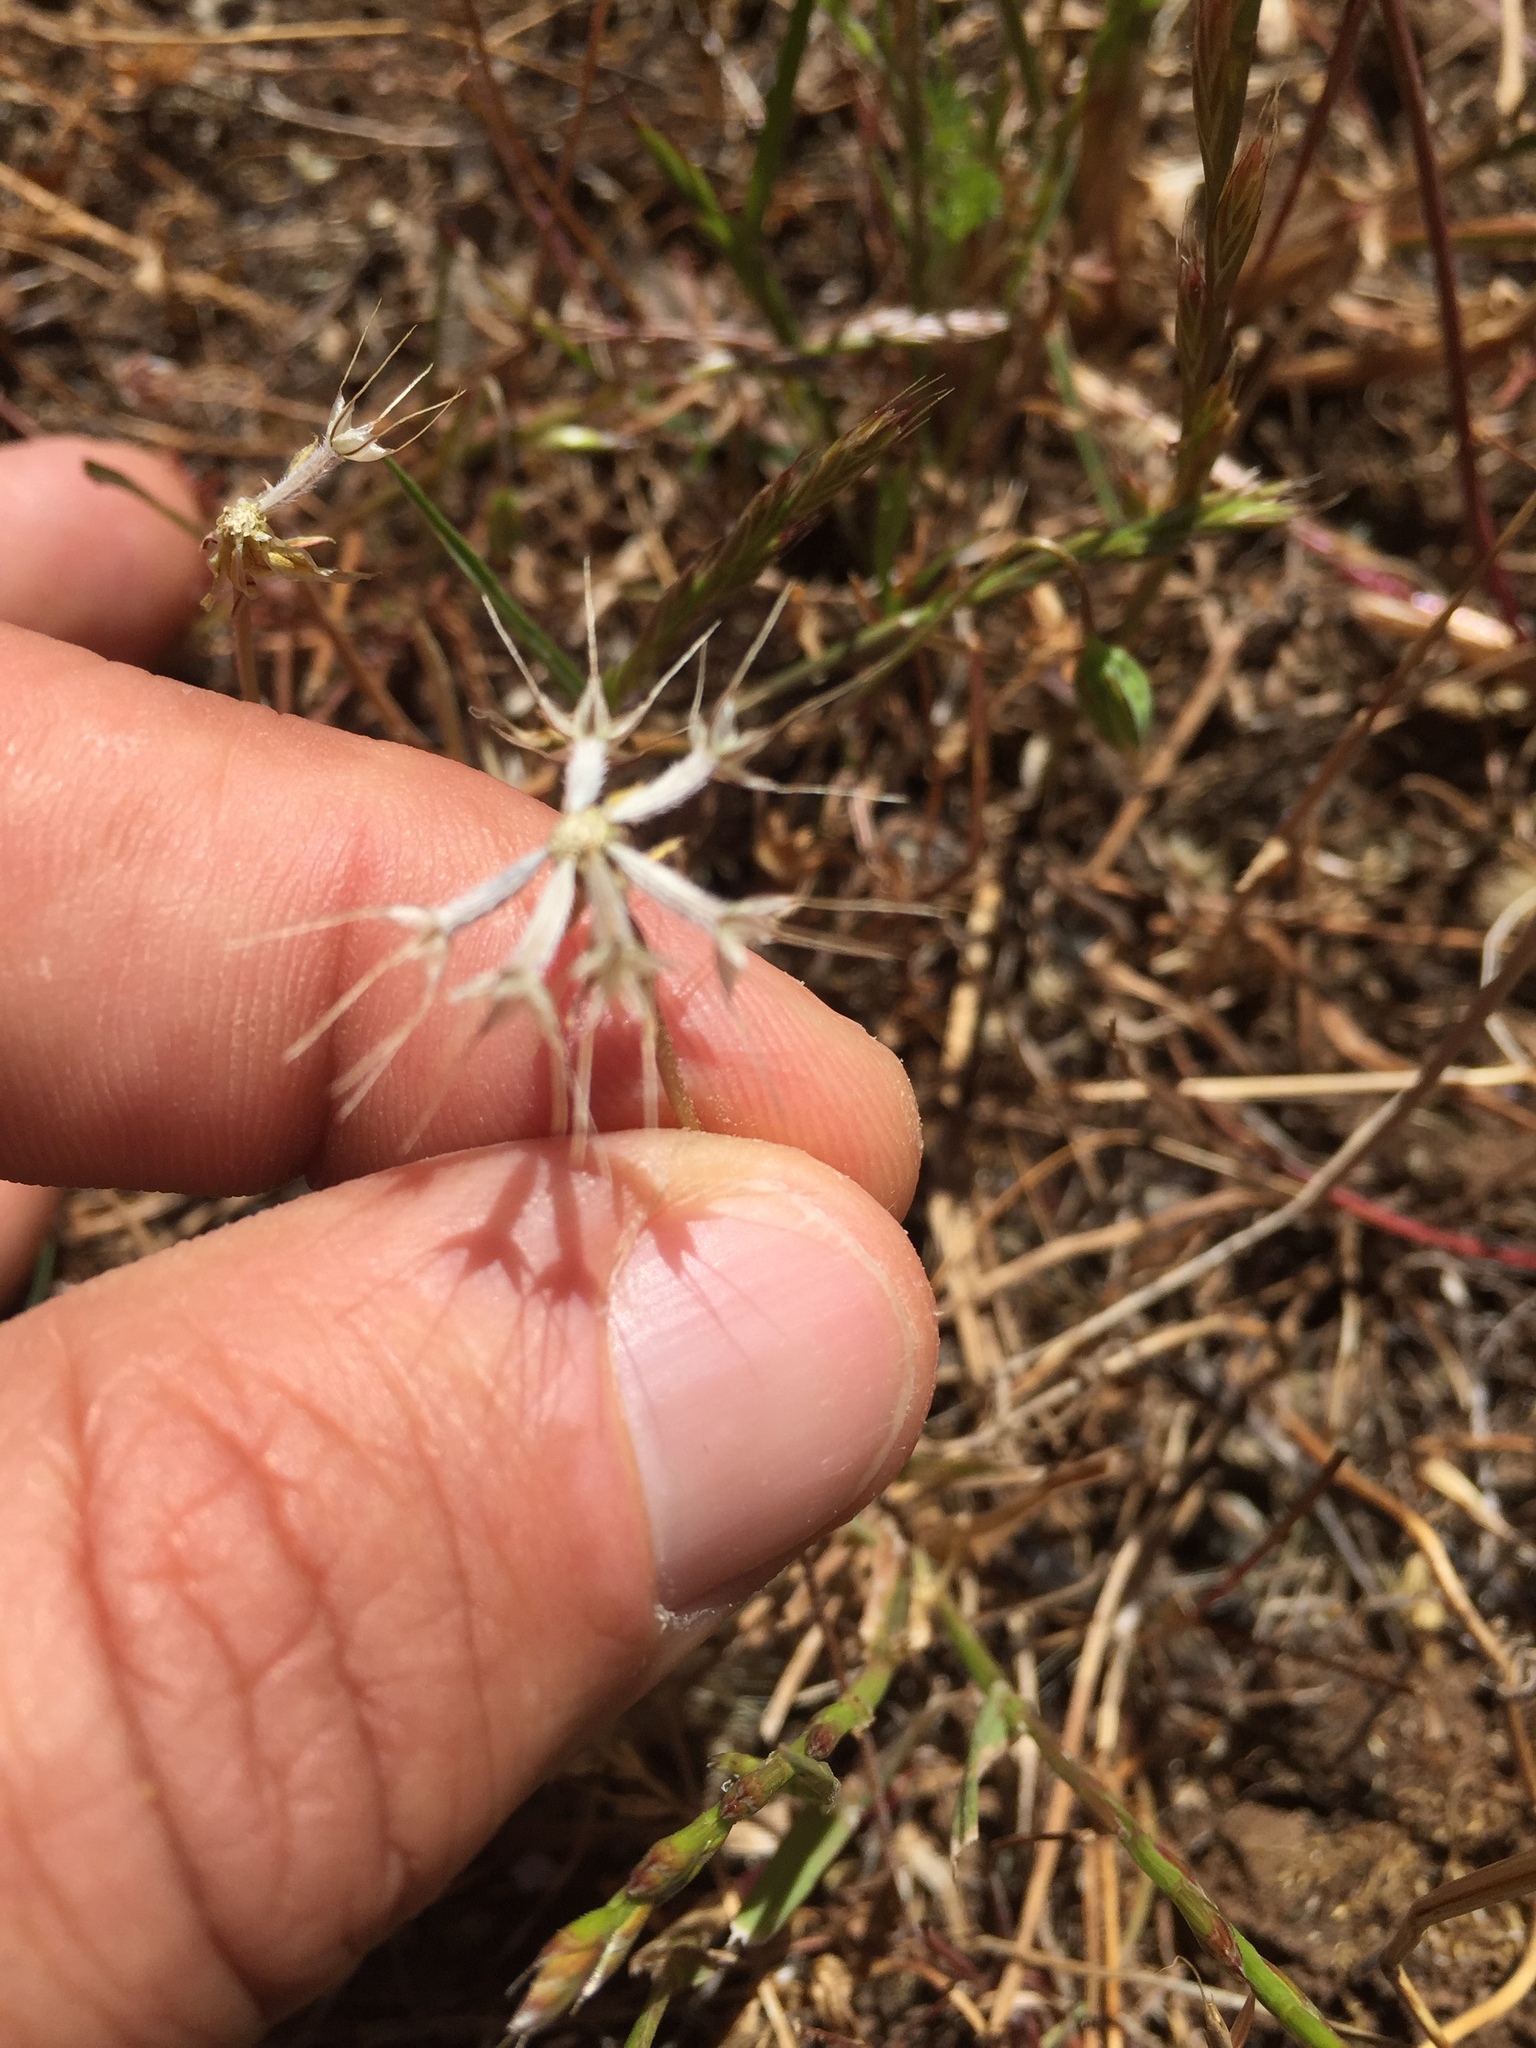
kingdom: Plantae
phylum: Tracheophyta
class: Magnoliopsida
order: Asterales
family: Asteraceae
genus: Microseris
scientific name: Microseris douglasii
